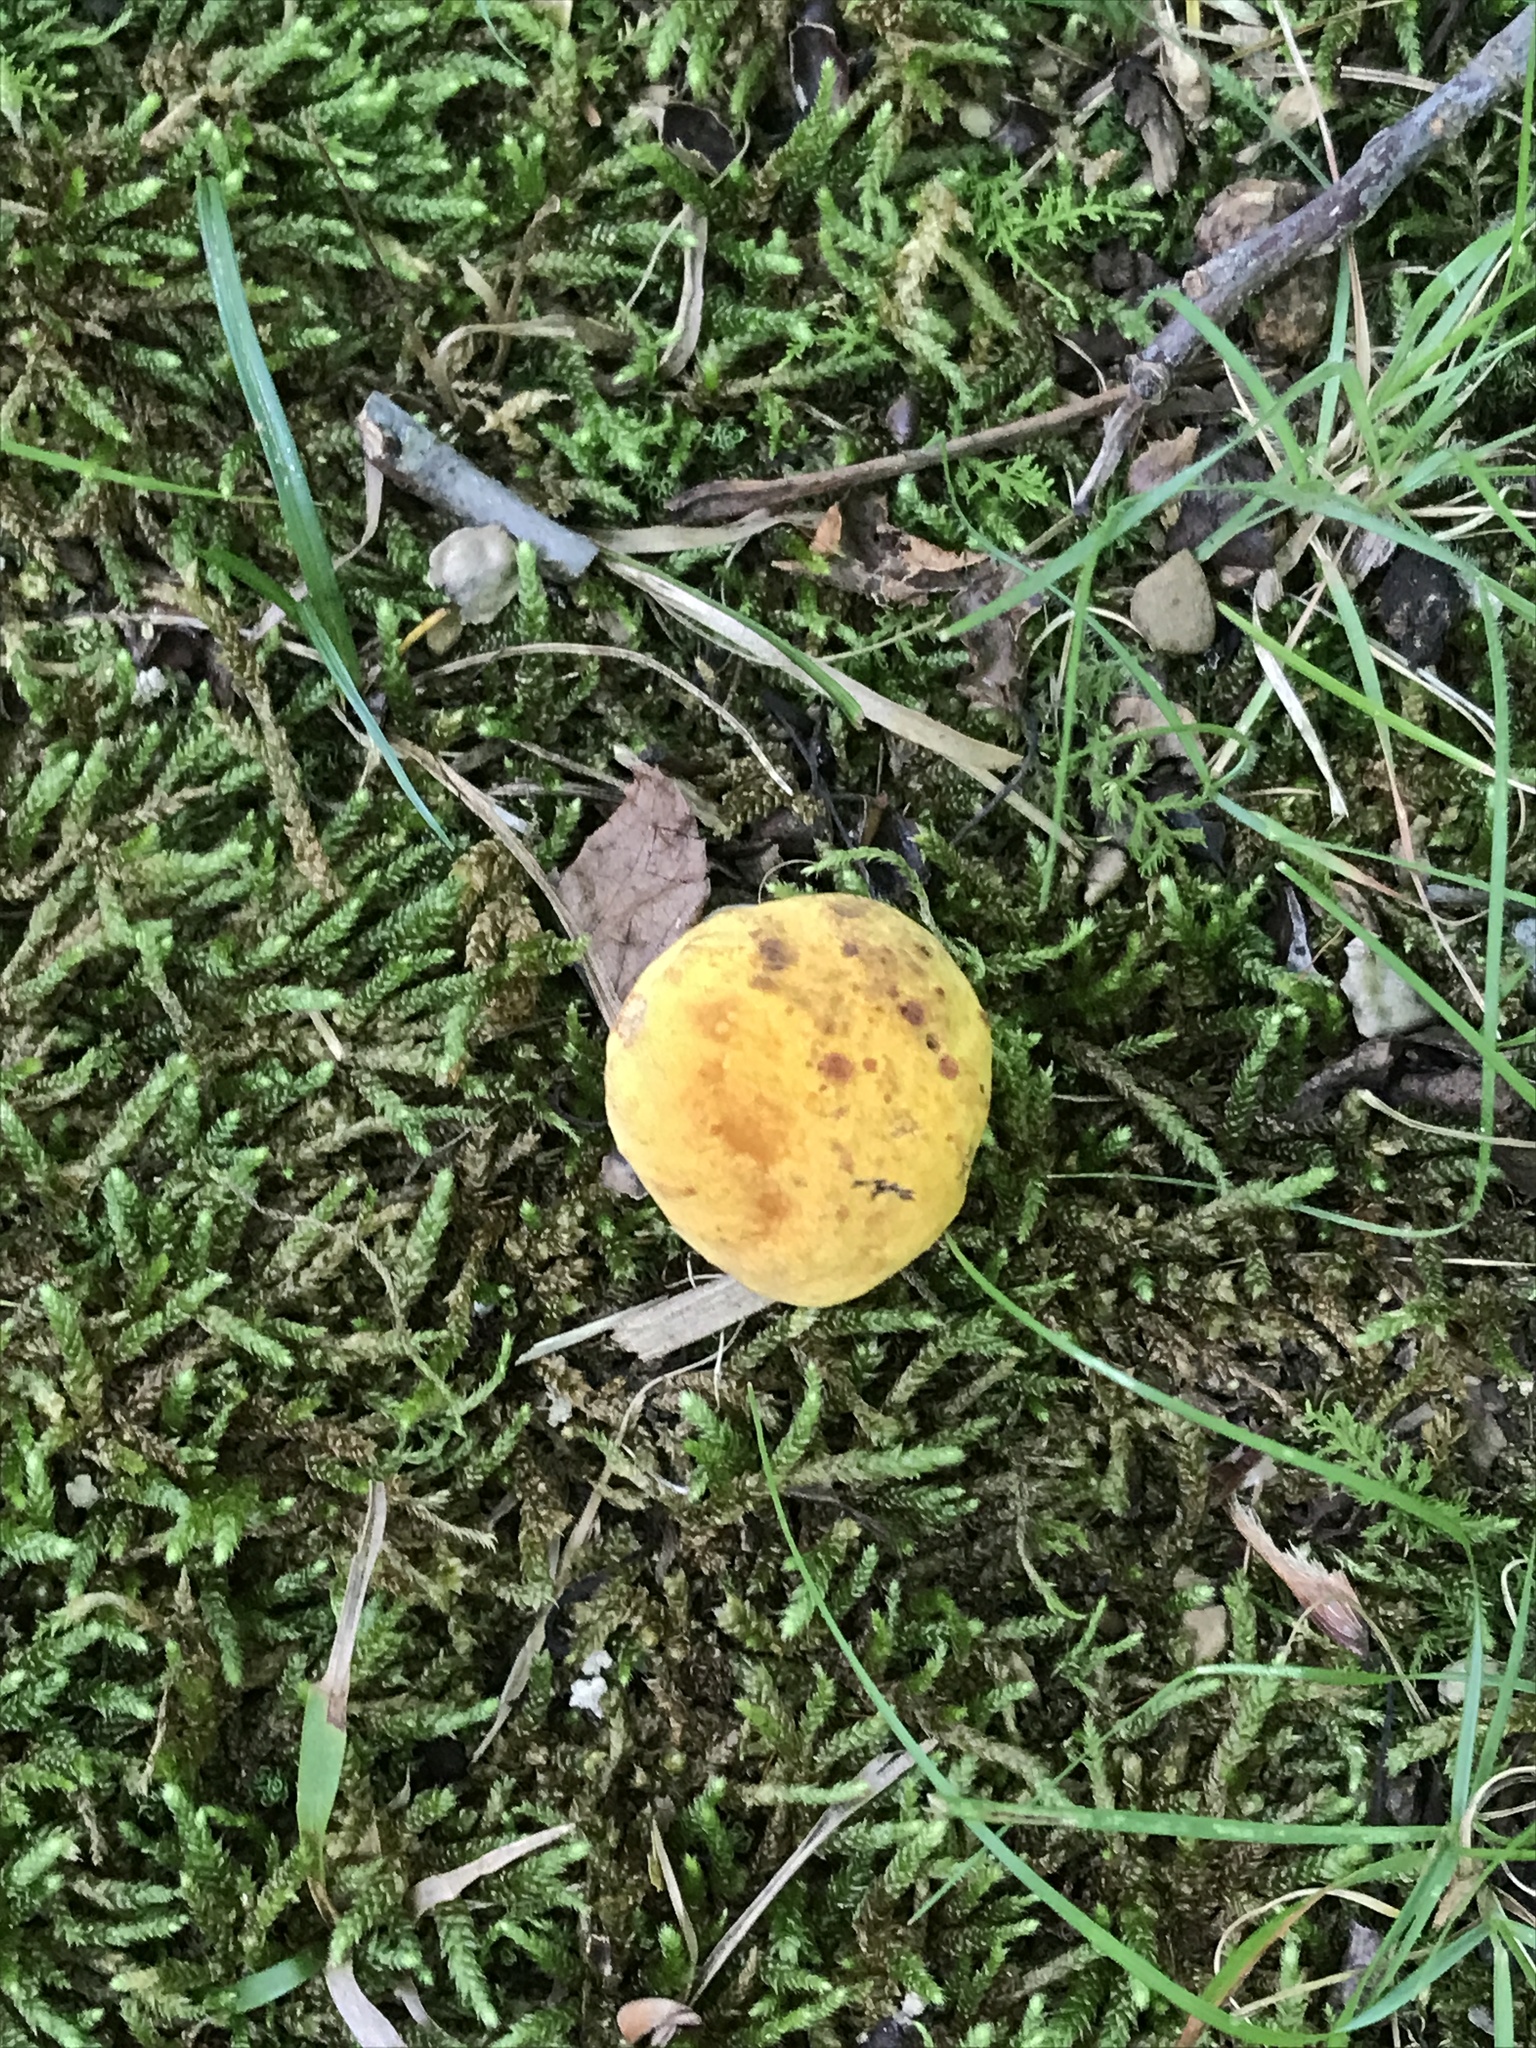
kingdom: Fungi
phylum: Basidiomycota
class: Agaricomycetes
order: Boletales
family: Boletaceae
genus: Neoboletus
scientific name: Neoboletus praestigiator
